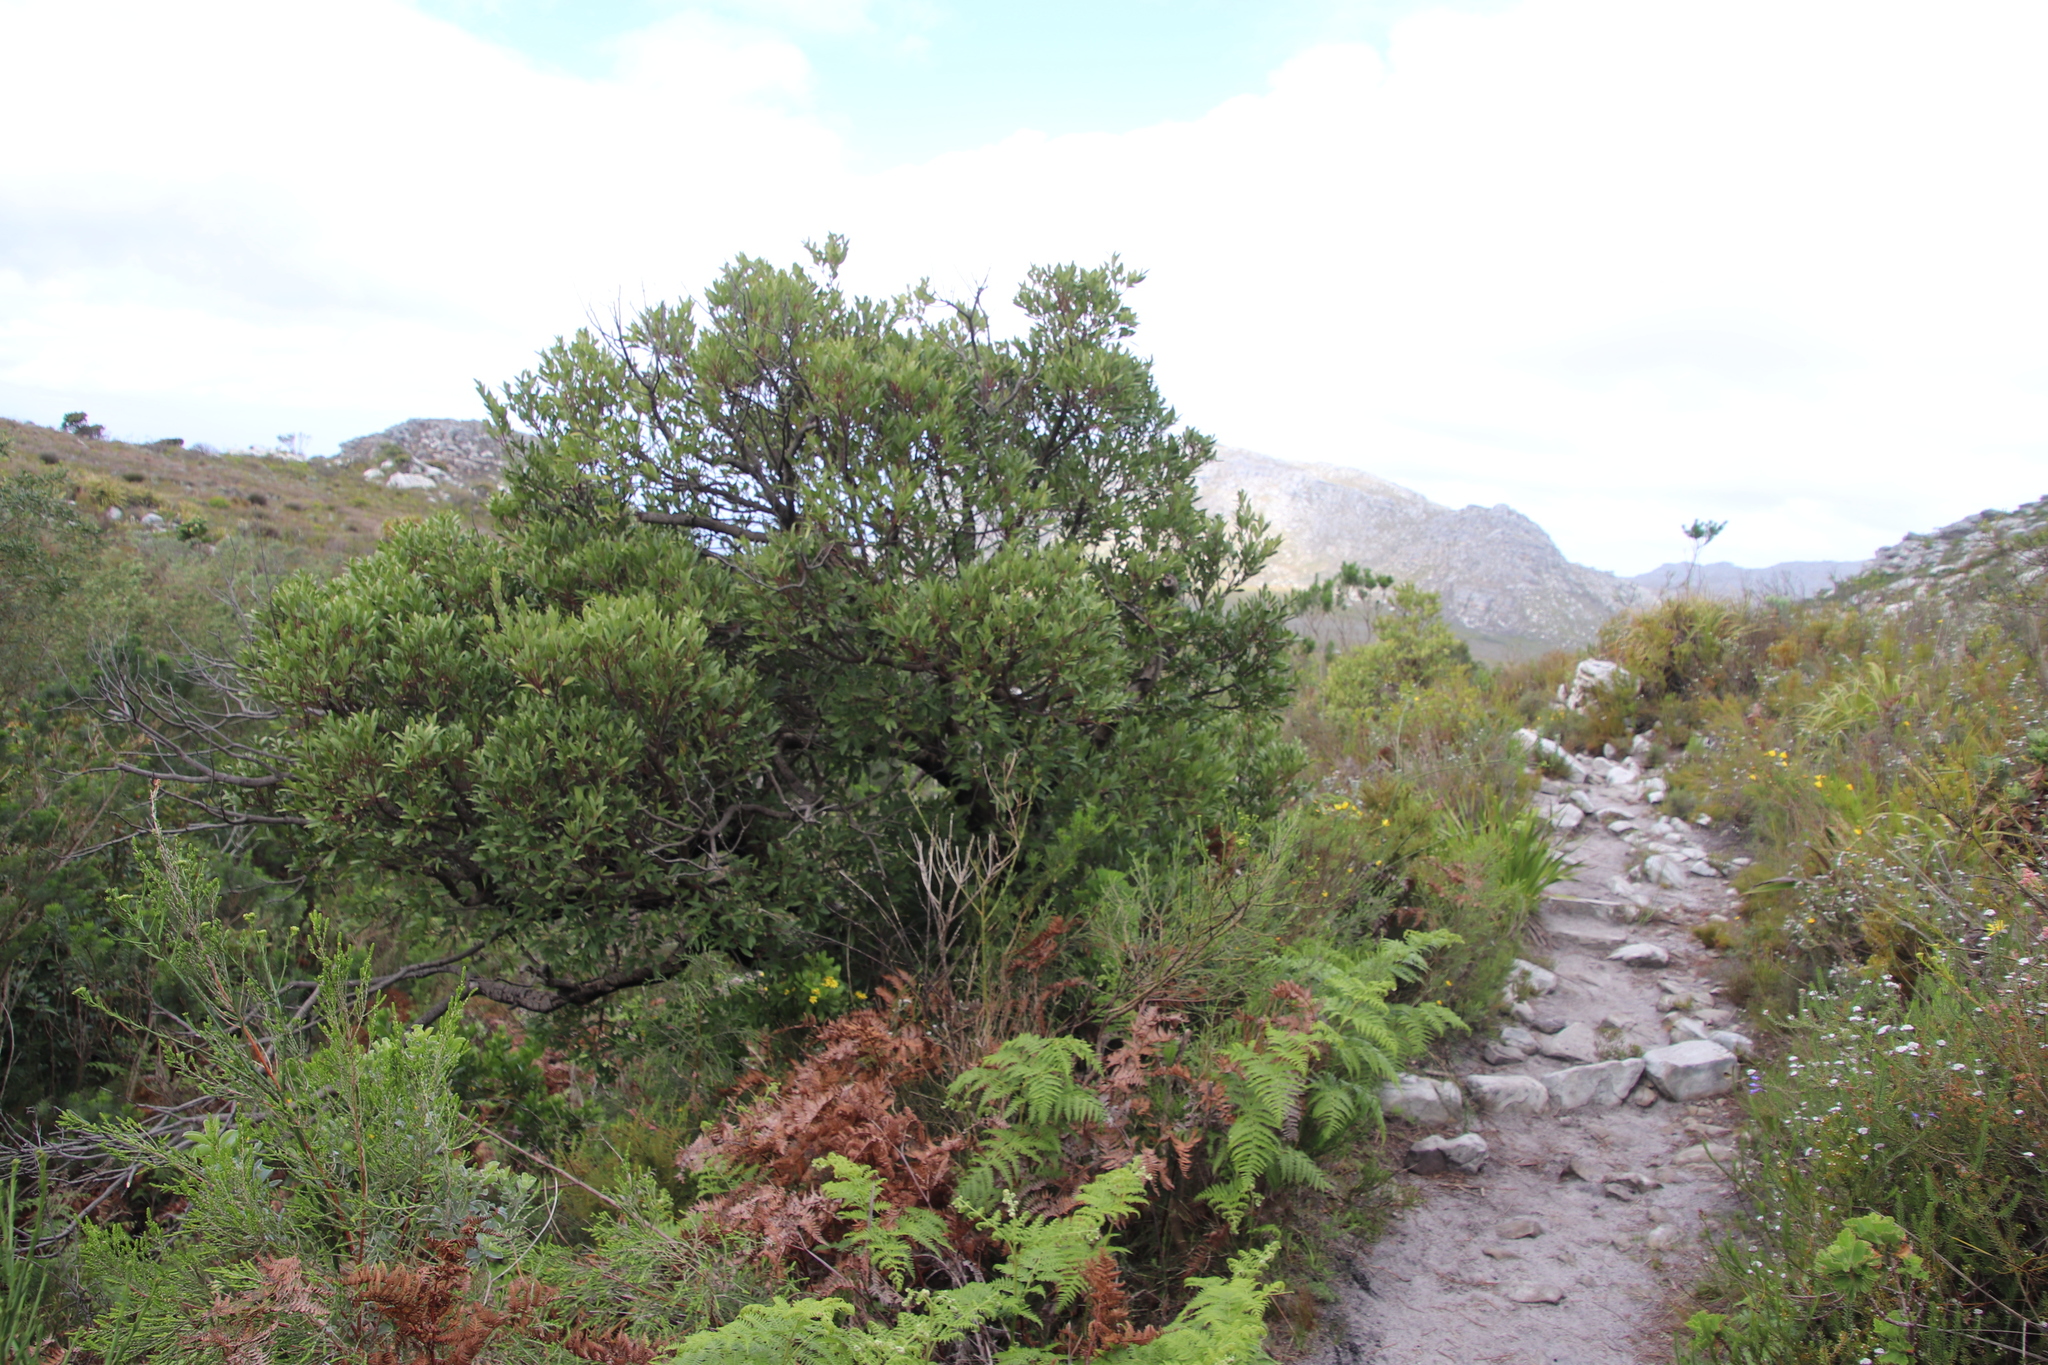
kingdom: Plantae
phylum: Tracheophyta
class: Magnoliopsida
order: Ericales
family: Ebenaceae
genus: Euclea
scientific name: Euclea racemosa
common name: Dune guarri
